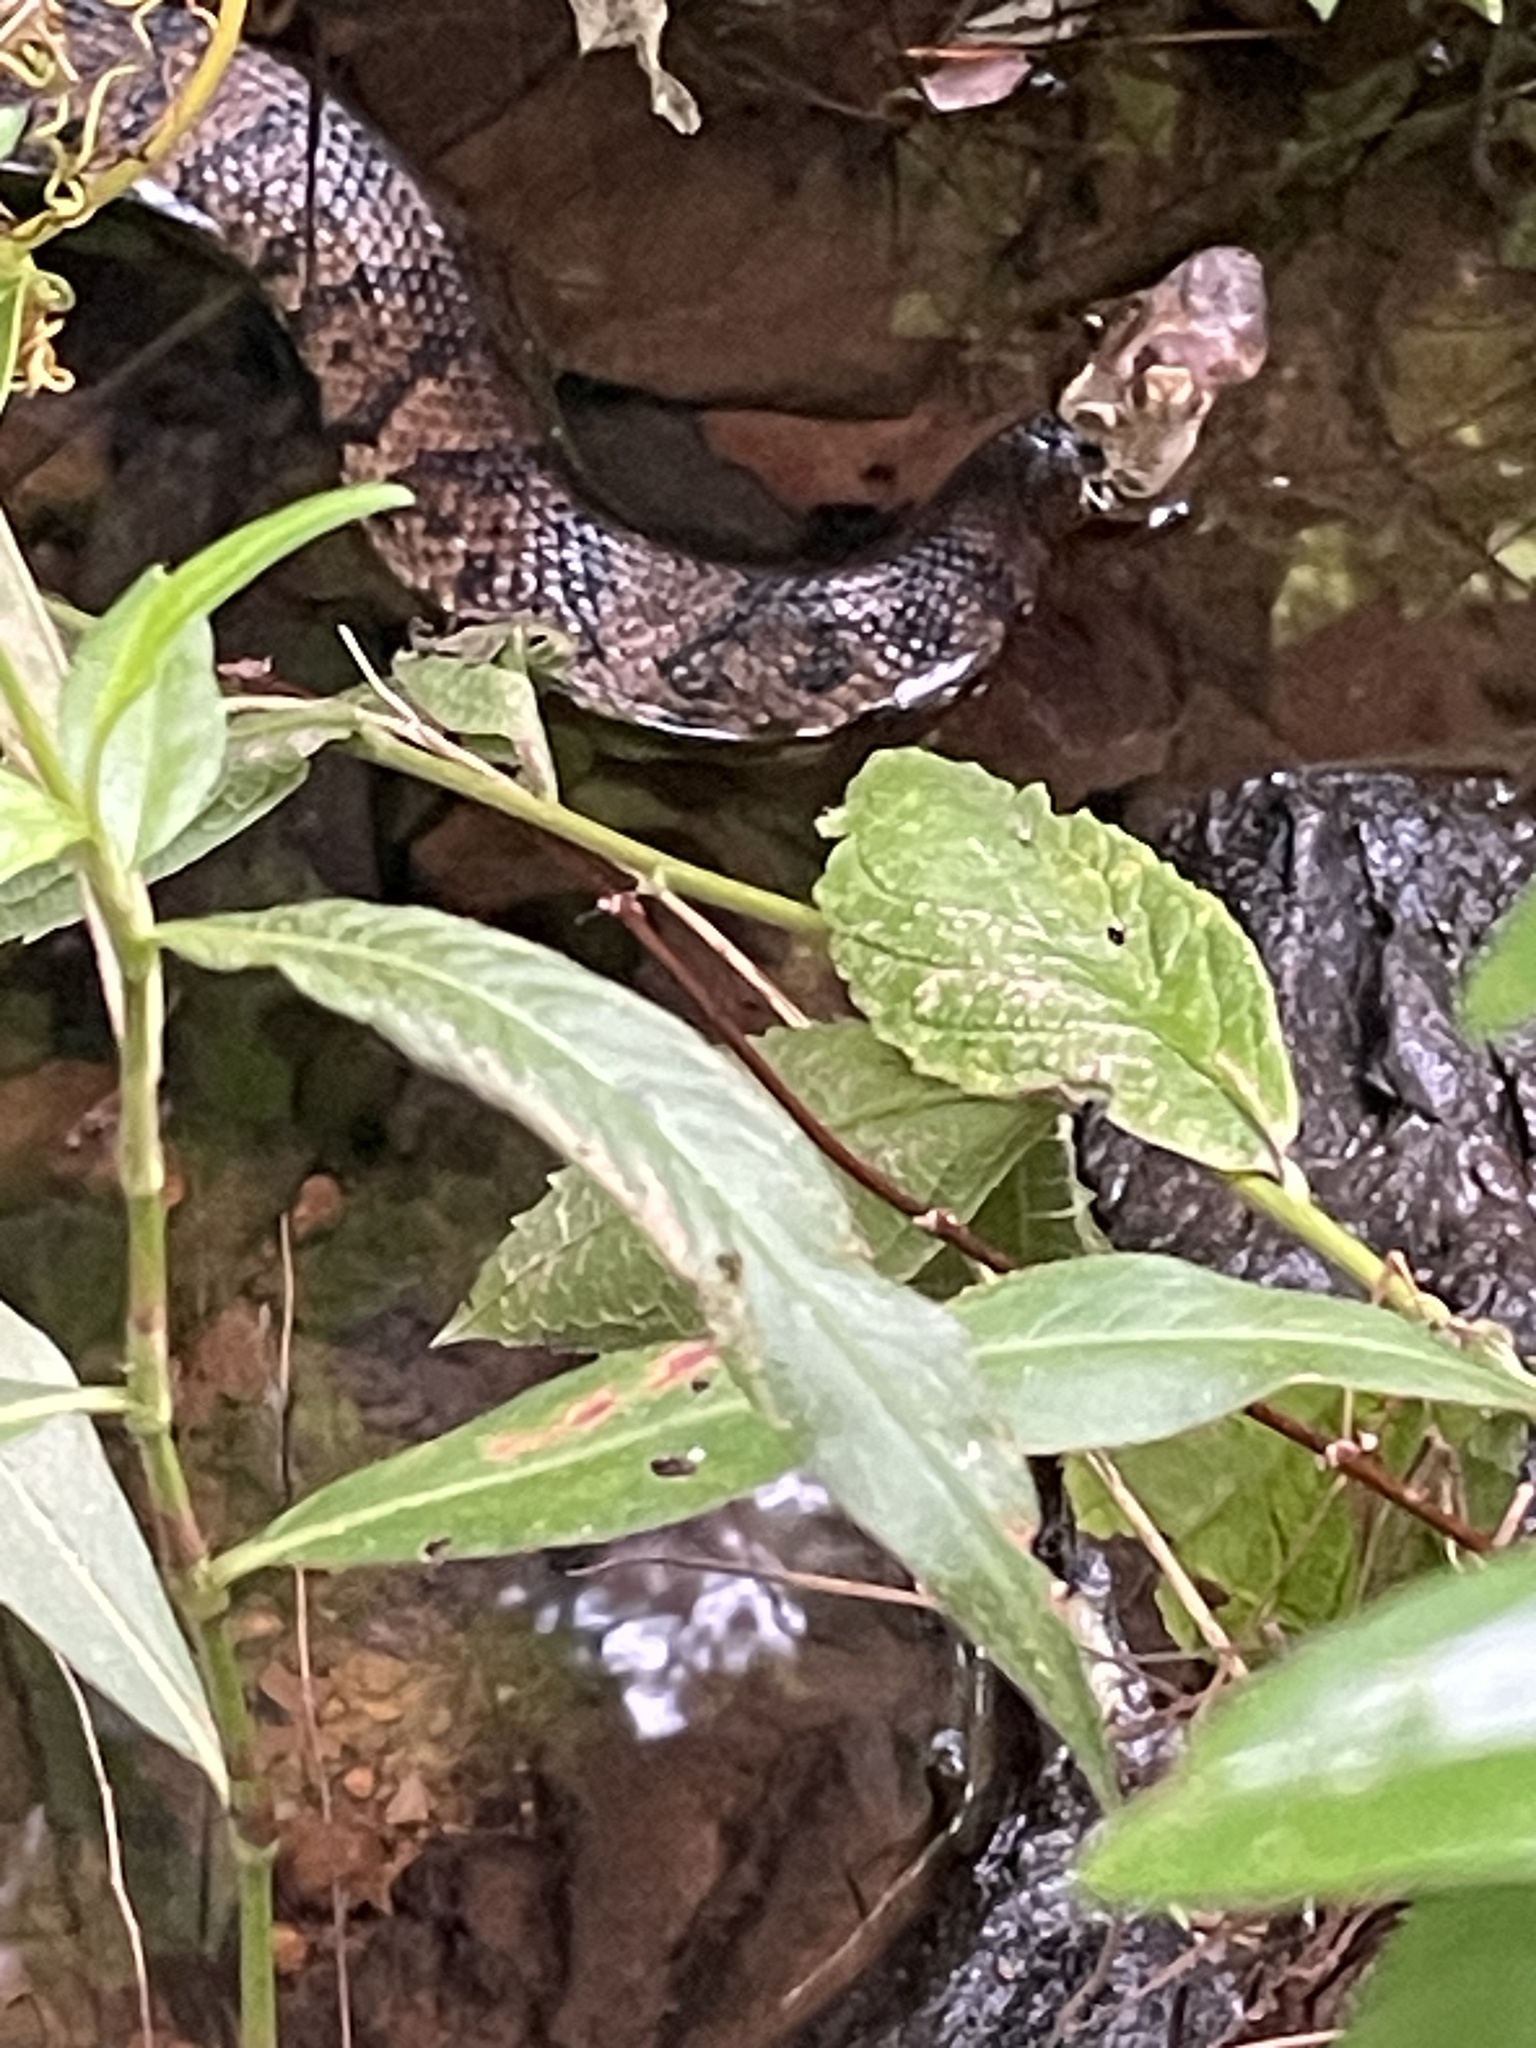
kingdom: Animalia
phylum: Chordata
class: Squamata
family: Viperidae
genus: Agkistrodon
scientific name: Agkistrodon piscivorus
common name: Cottonmouth
